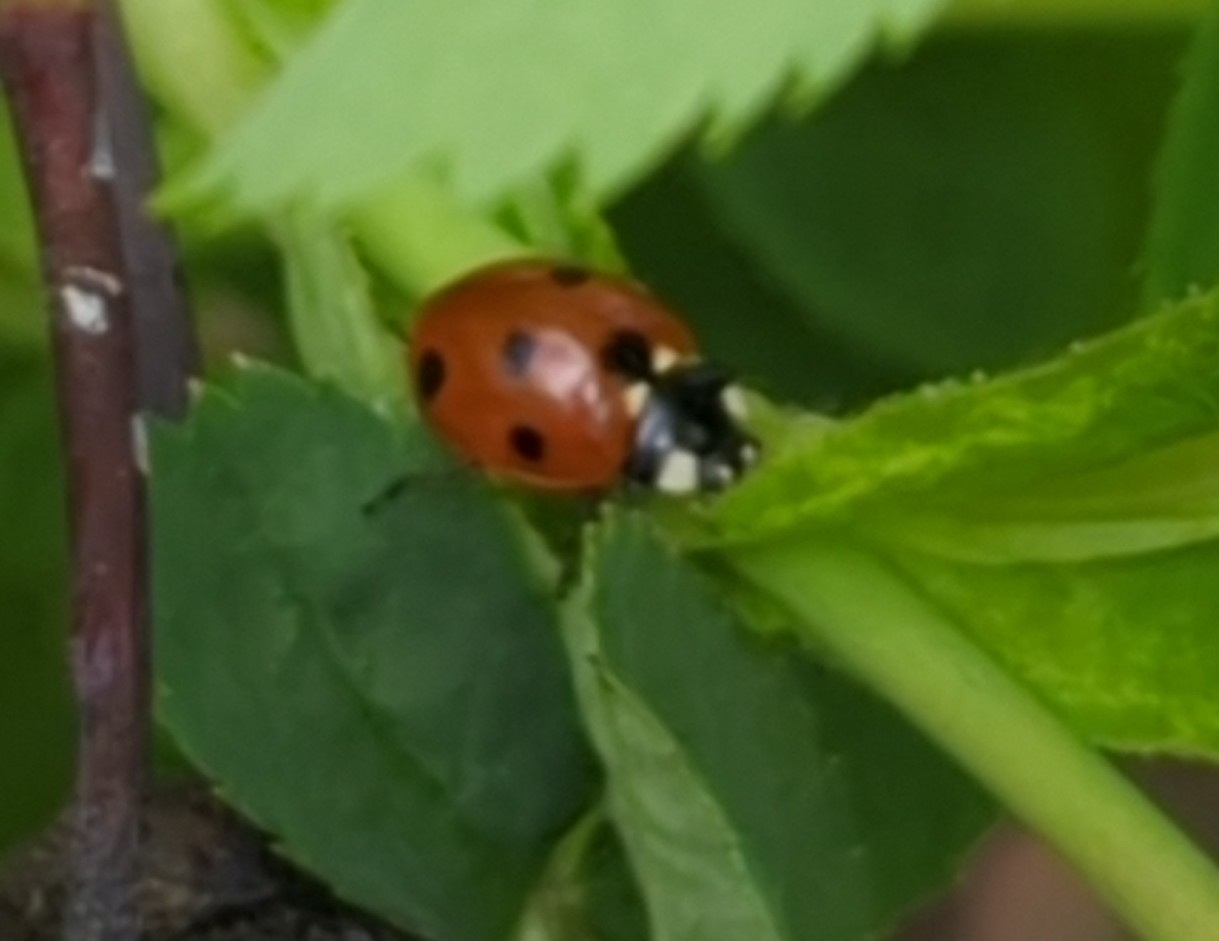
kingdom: Animalia
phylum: Arthropoda
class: Insecta
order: Coleoptera
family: Coccinellidae
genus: Coccinella
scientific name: Coccinella septempunctata
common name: Sevenspotted lady beetle
